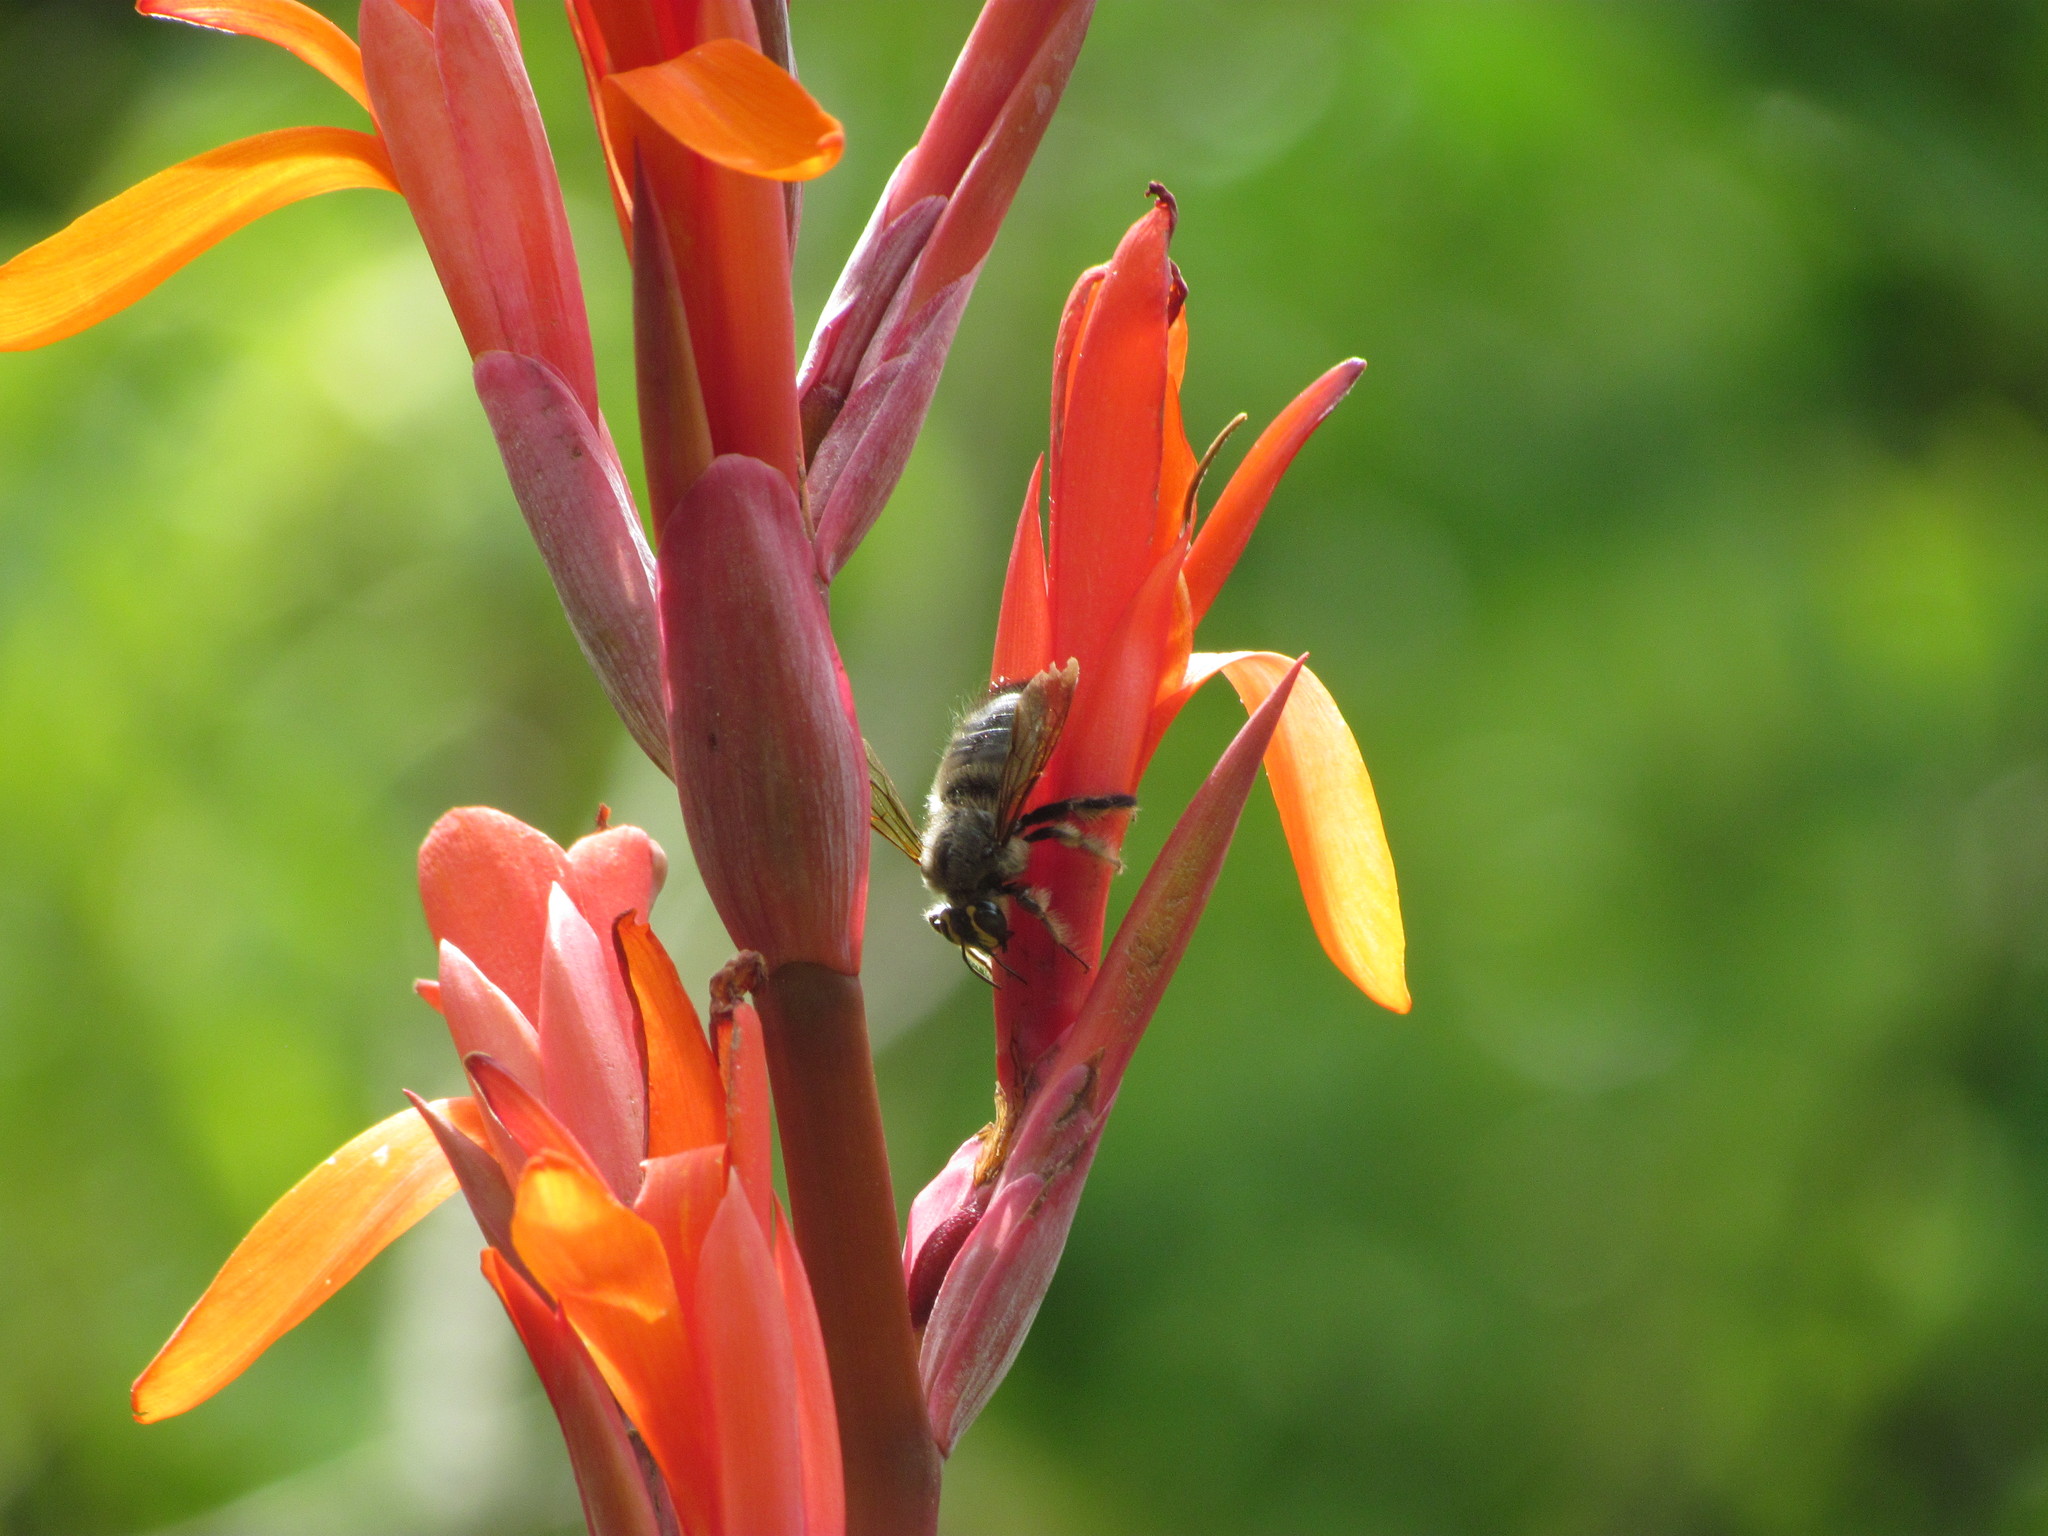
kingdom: Animalia
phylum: Arthropoda
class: Insecta
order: Hymenoptera
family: Apidae
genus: Xylocopa
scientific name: Xylocopa artifex
